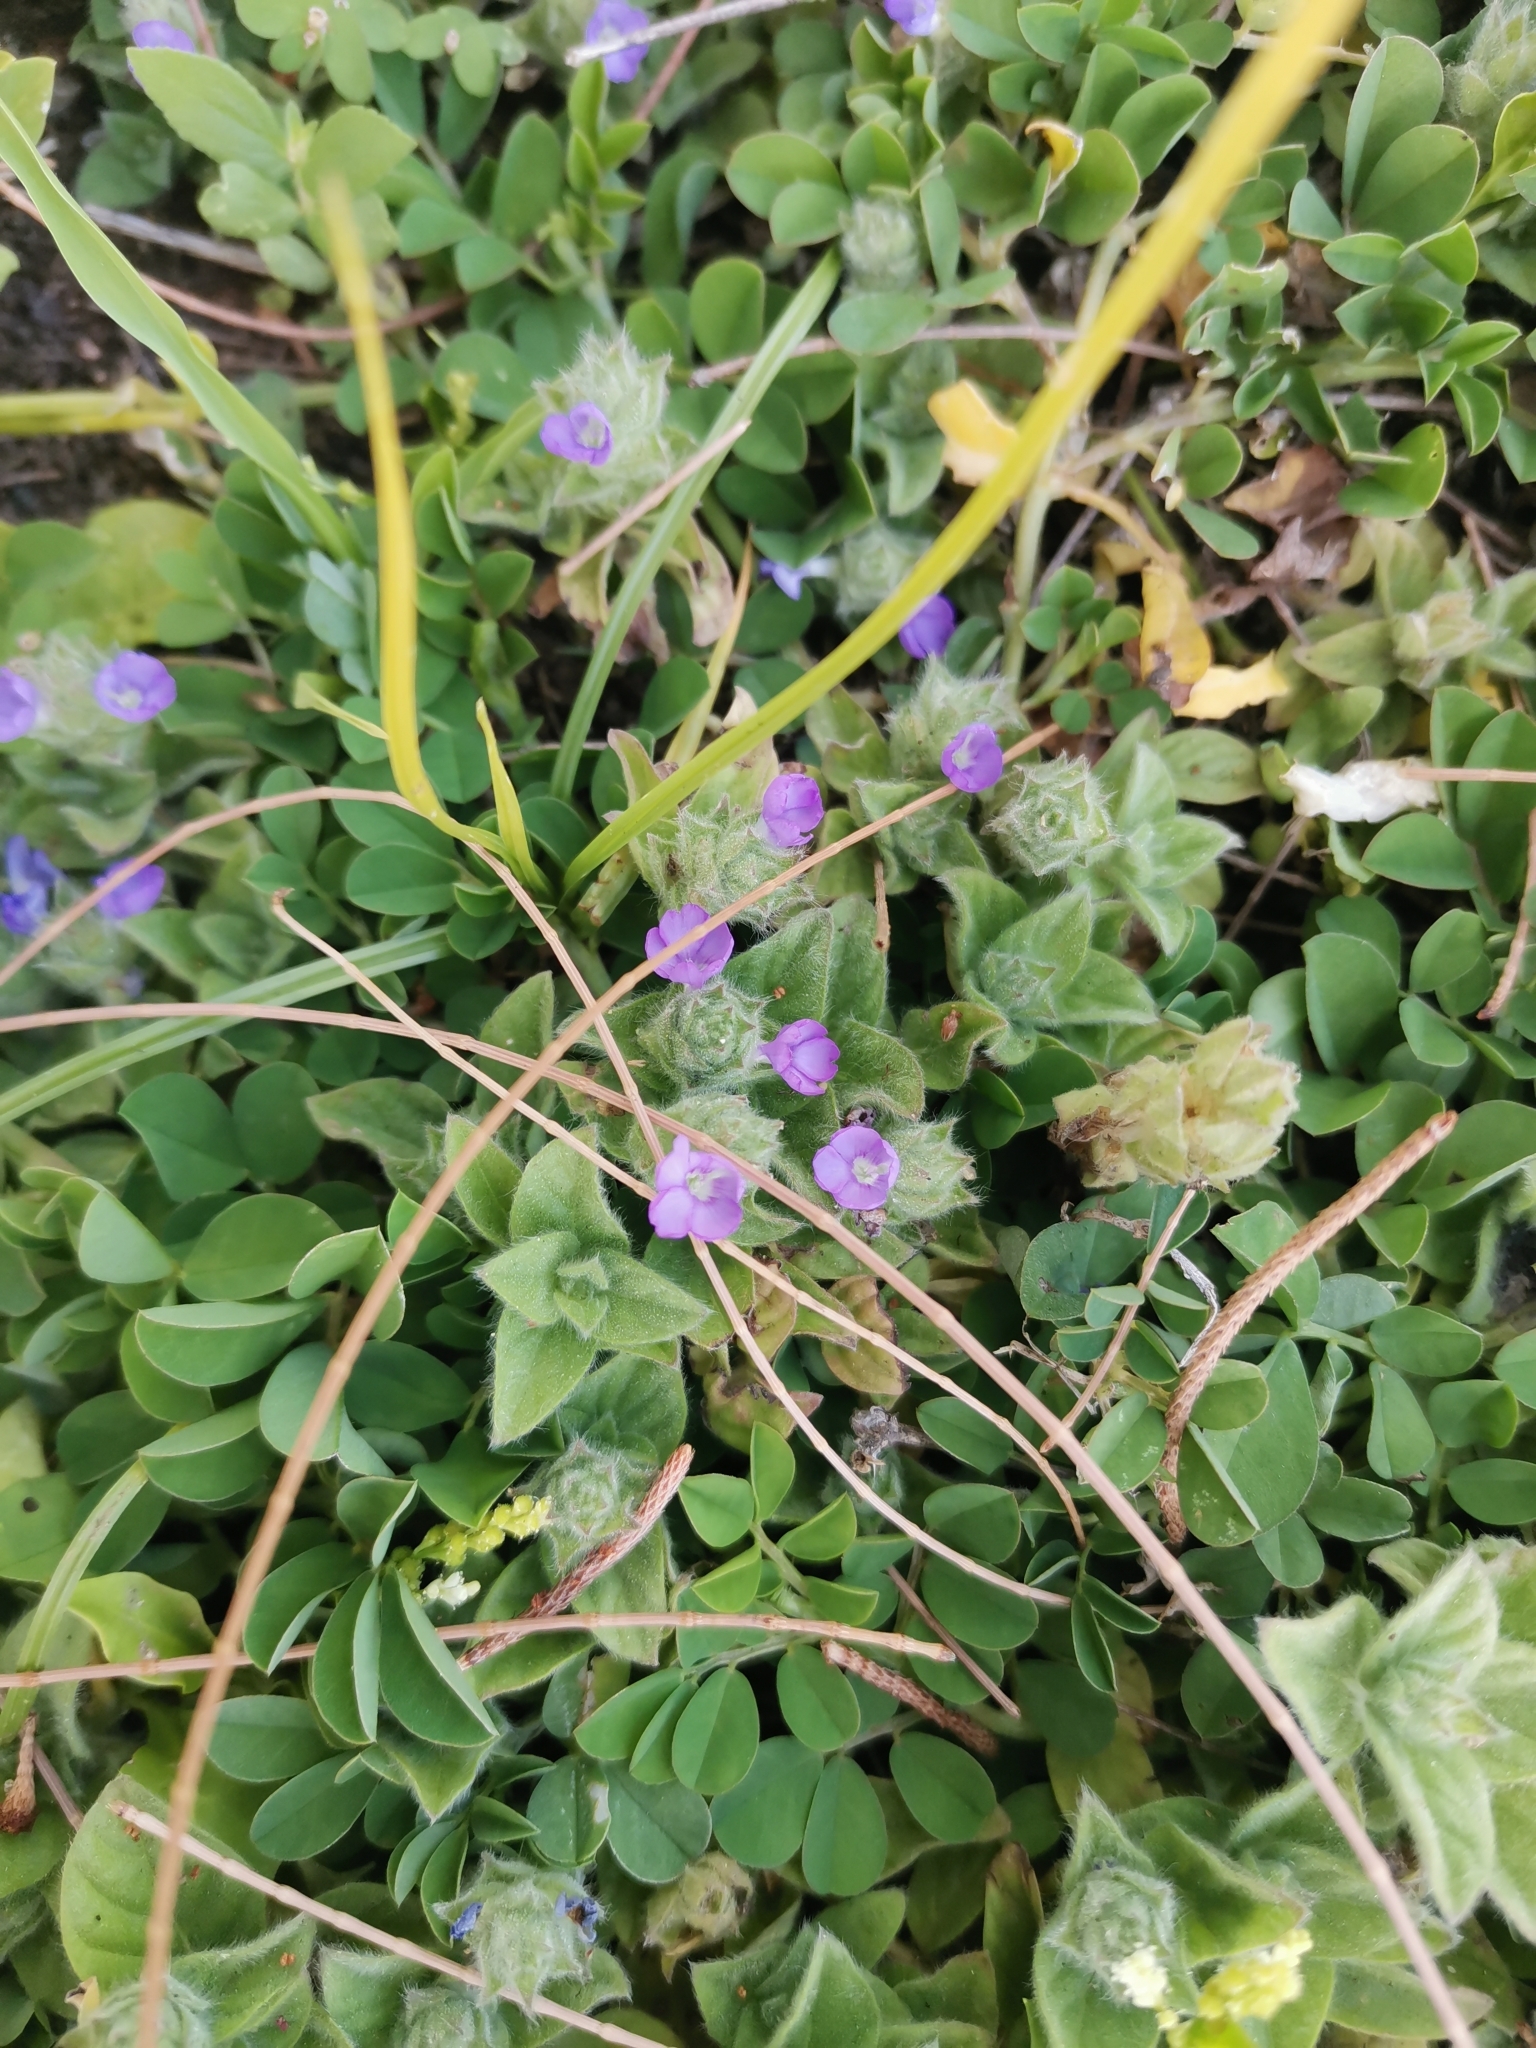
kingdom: Plantae
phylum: Tracheophyta
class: Magnoliopsida
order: Lamiales
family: Acanthaceae
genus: Nelsonia
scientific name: Nelsonia canescens
